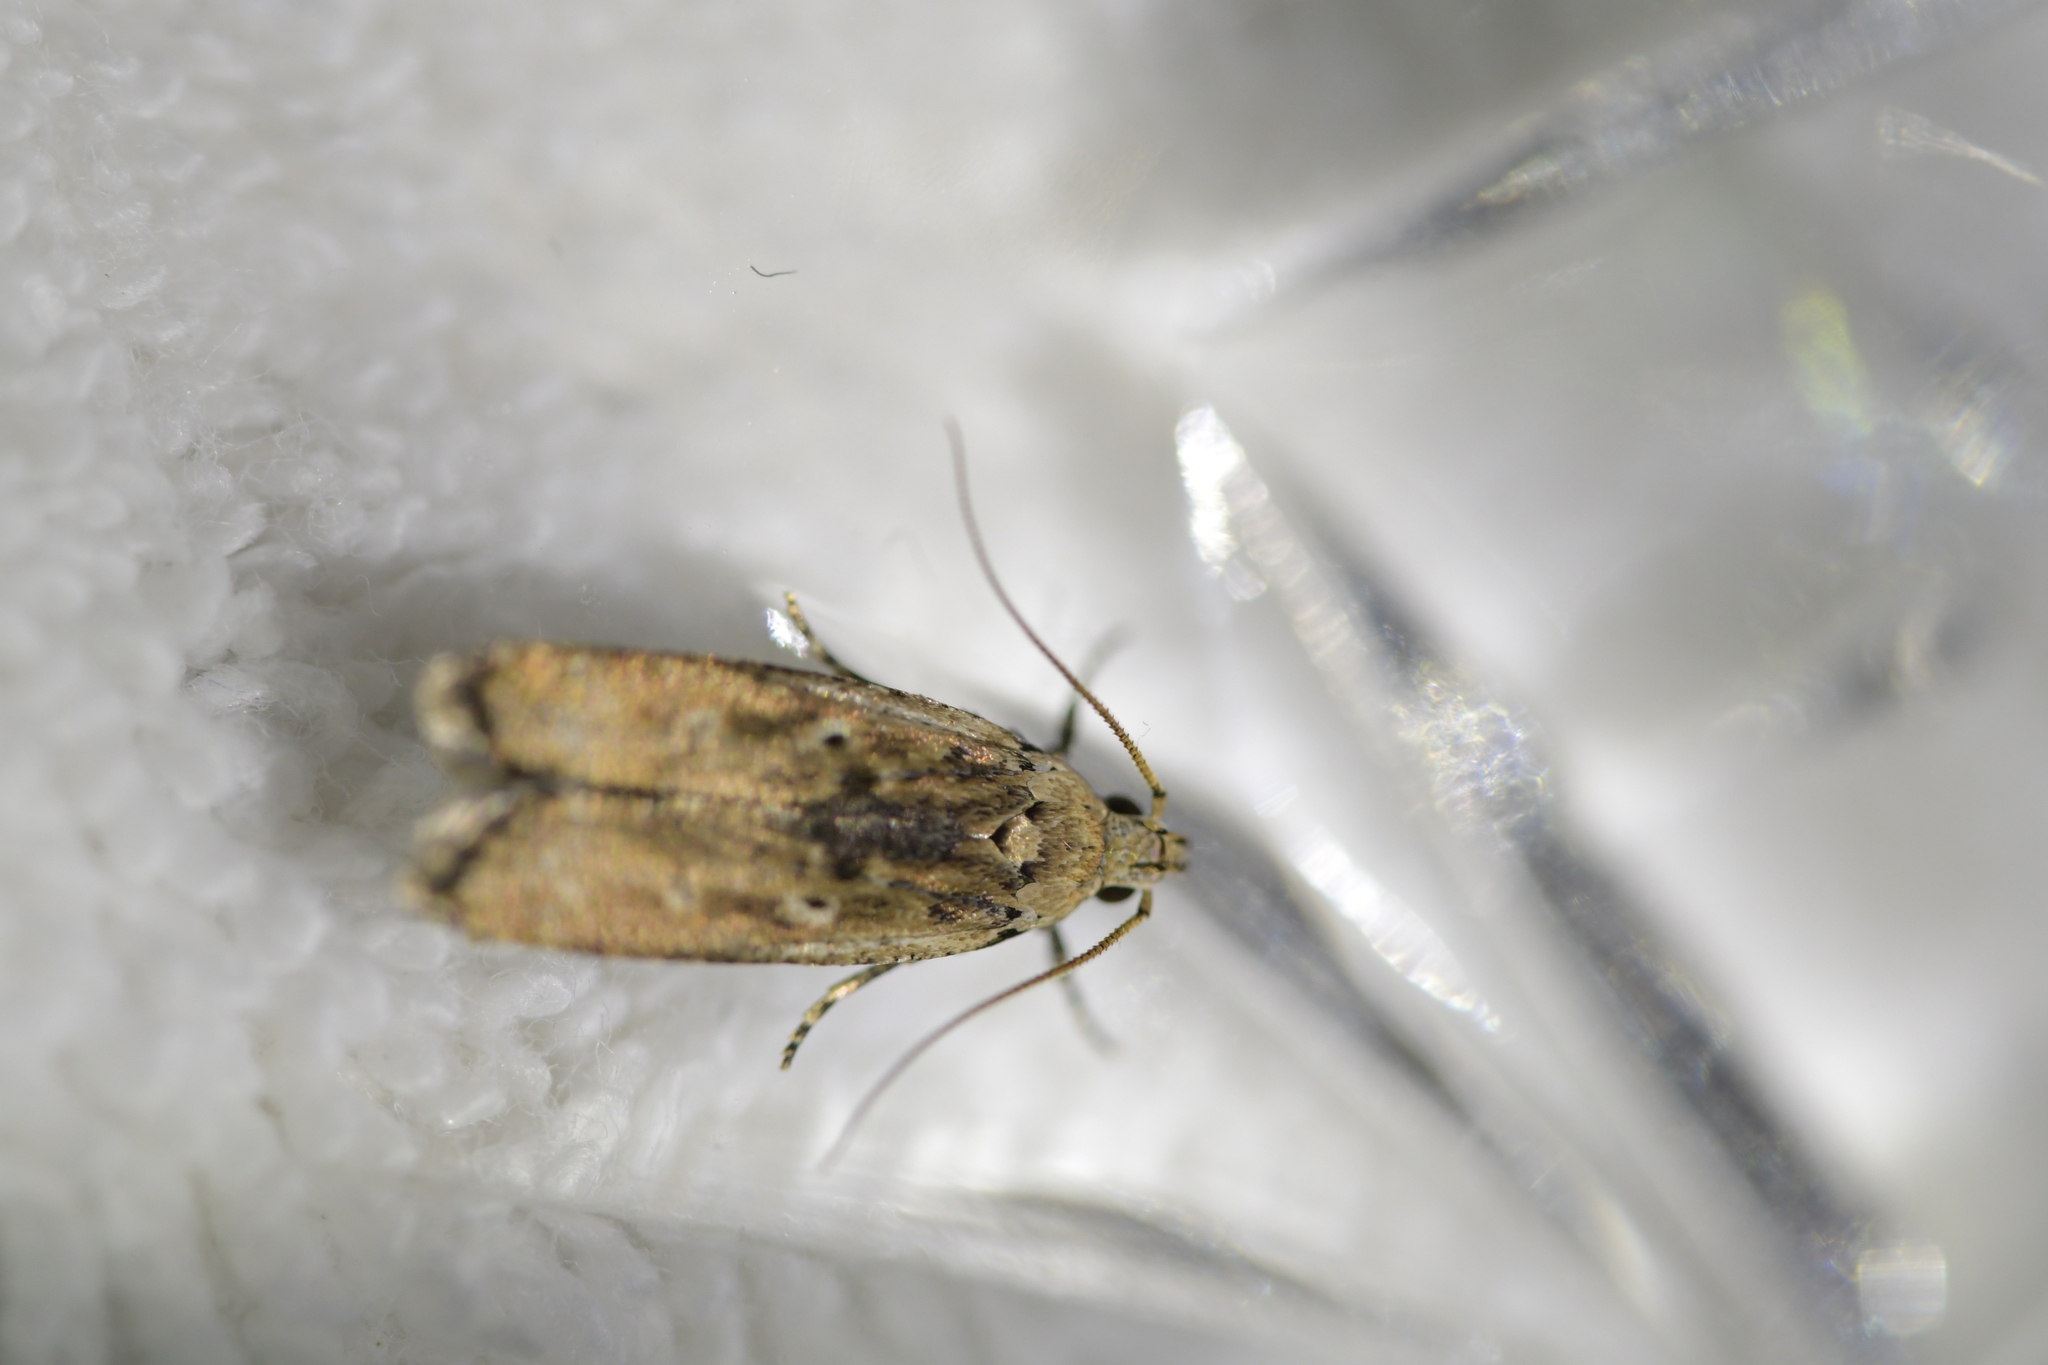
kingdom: Animalia
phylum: Arthropoda
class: Insecta
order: Lepidoptera
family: Gelechiidae
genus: Anisoplaca
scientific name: Anisoplaca achyrota
